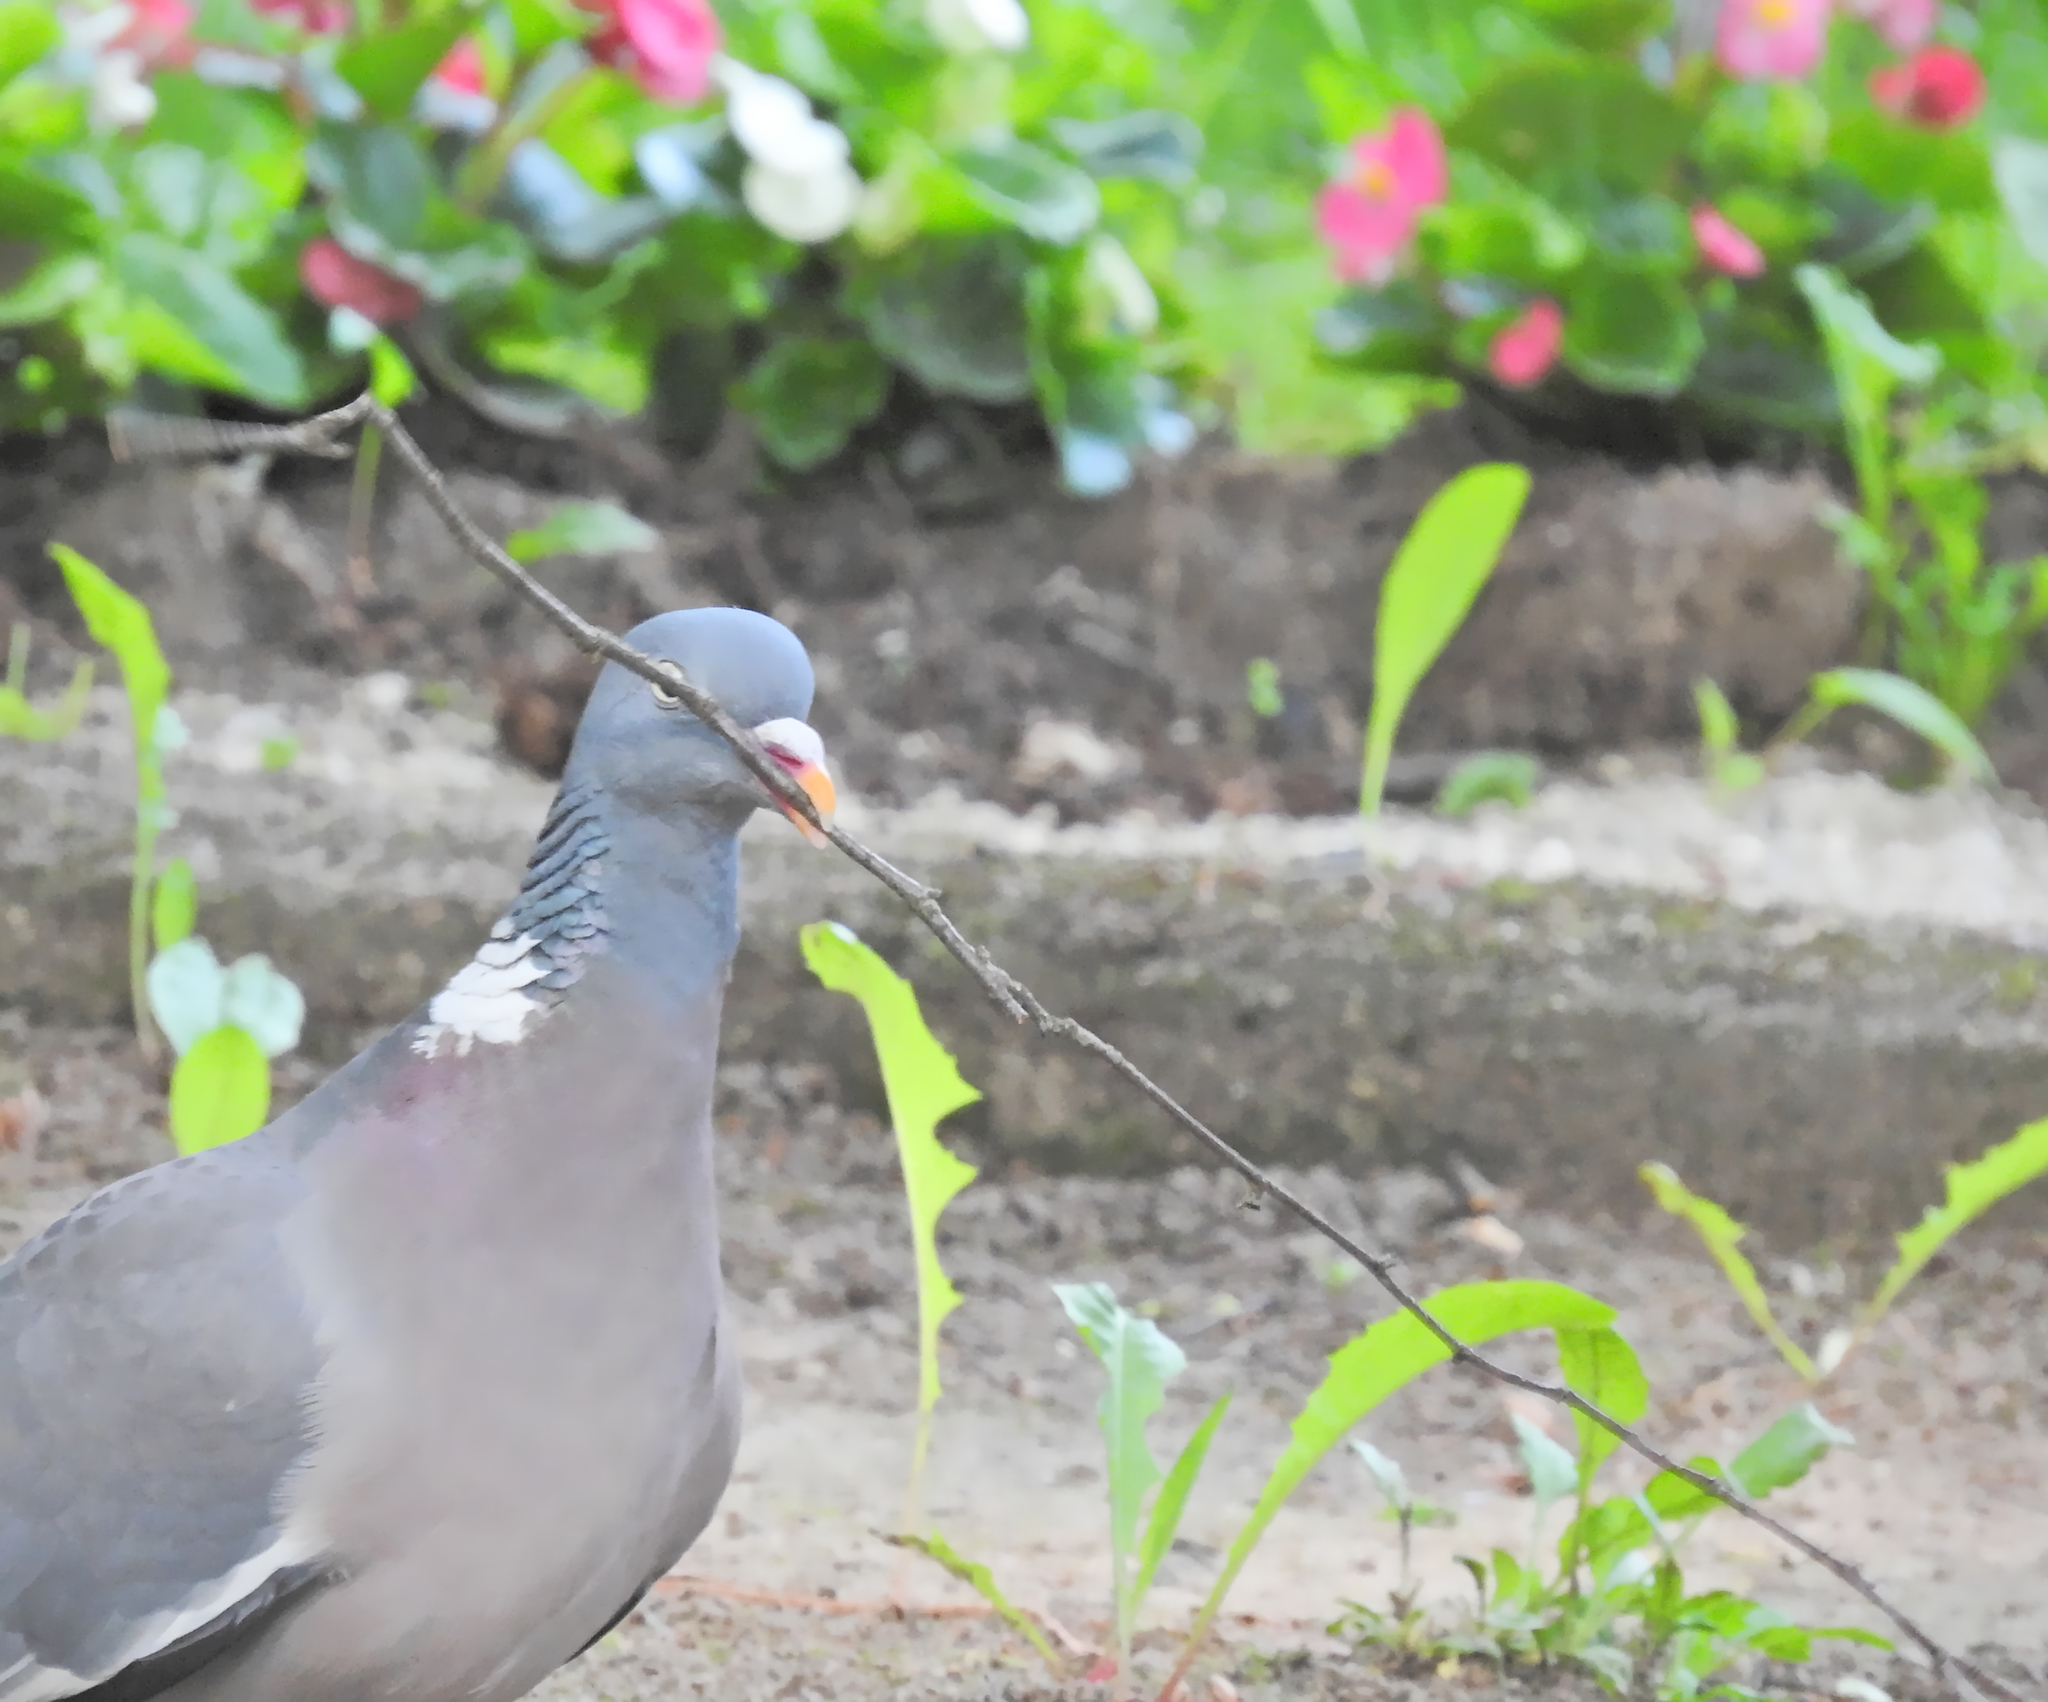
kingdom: Animalia
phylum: Chordata
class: Aves
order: Columbiformes
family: Columbidae
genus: Columba
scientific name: Columba palumbus
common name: Common wood pigeon
